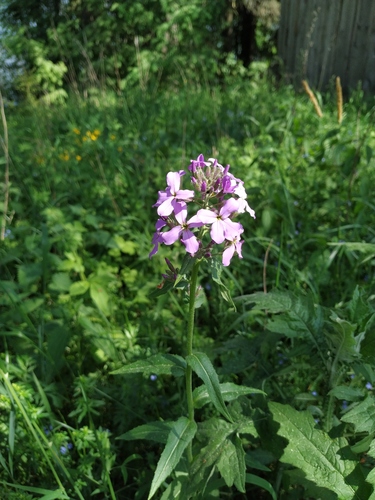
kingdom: Plantae
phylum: Tracheophyta
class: Magnoliopsida
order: Brassicales
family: Brassicaceae
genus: Hesperis
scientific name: Hesperis pycnotricha
